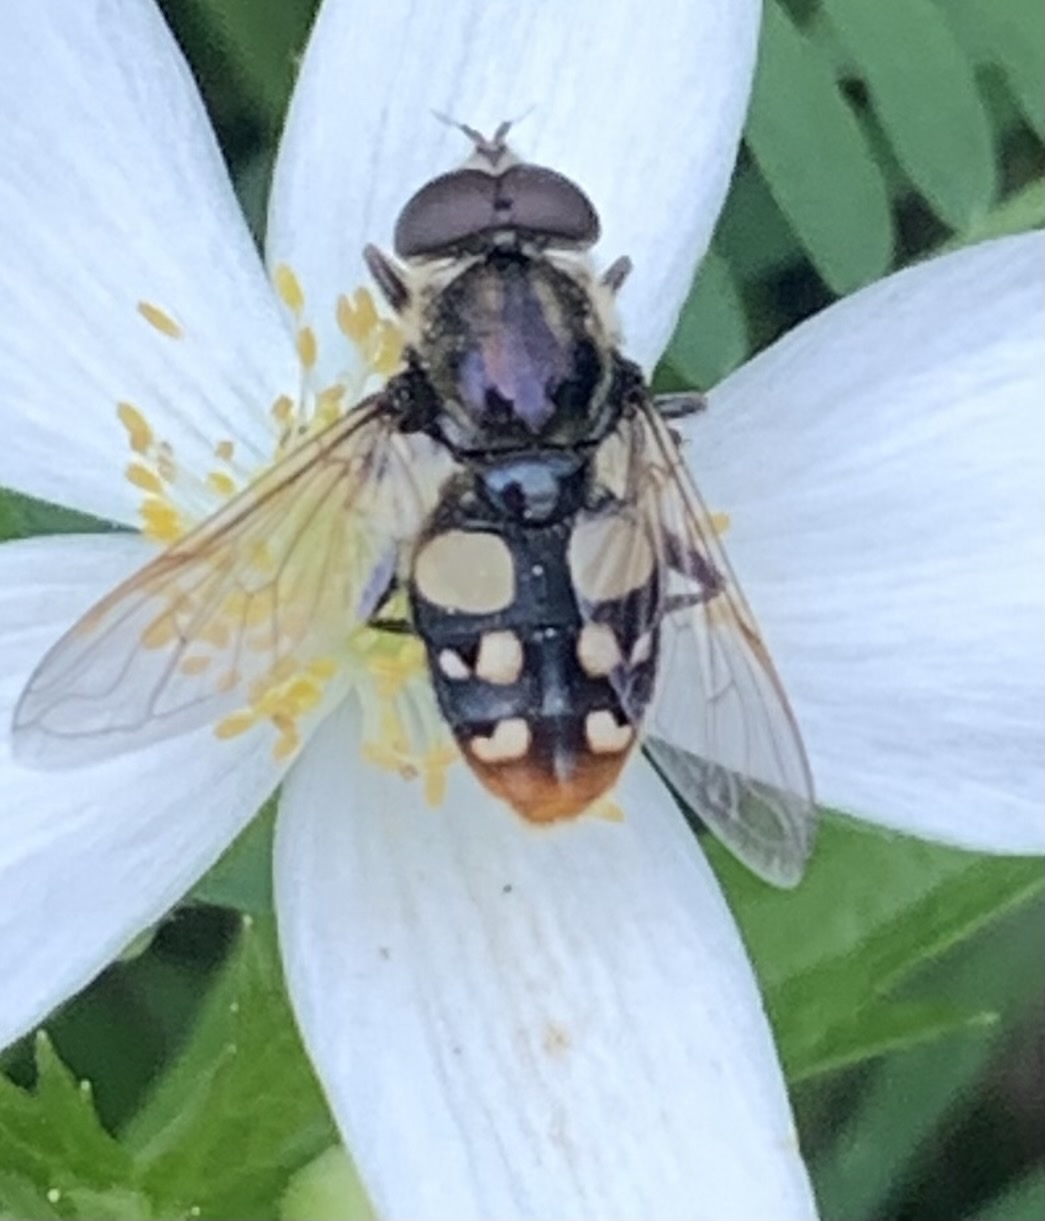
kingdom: Animalia
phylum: Arthropoda
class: Insecta
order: Diptera
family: Syrphidae
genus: Sericomyia
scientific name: Sericomyia lata
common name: White-spotted pond fly
